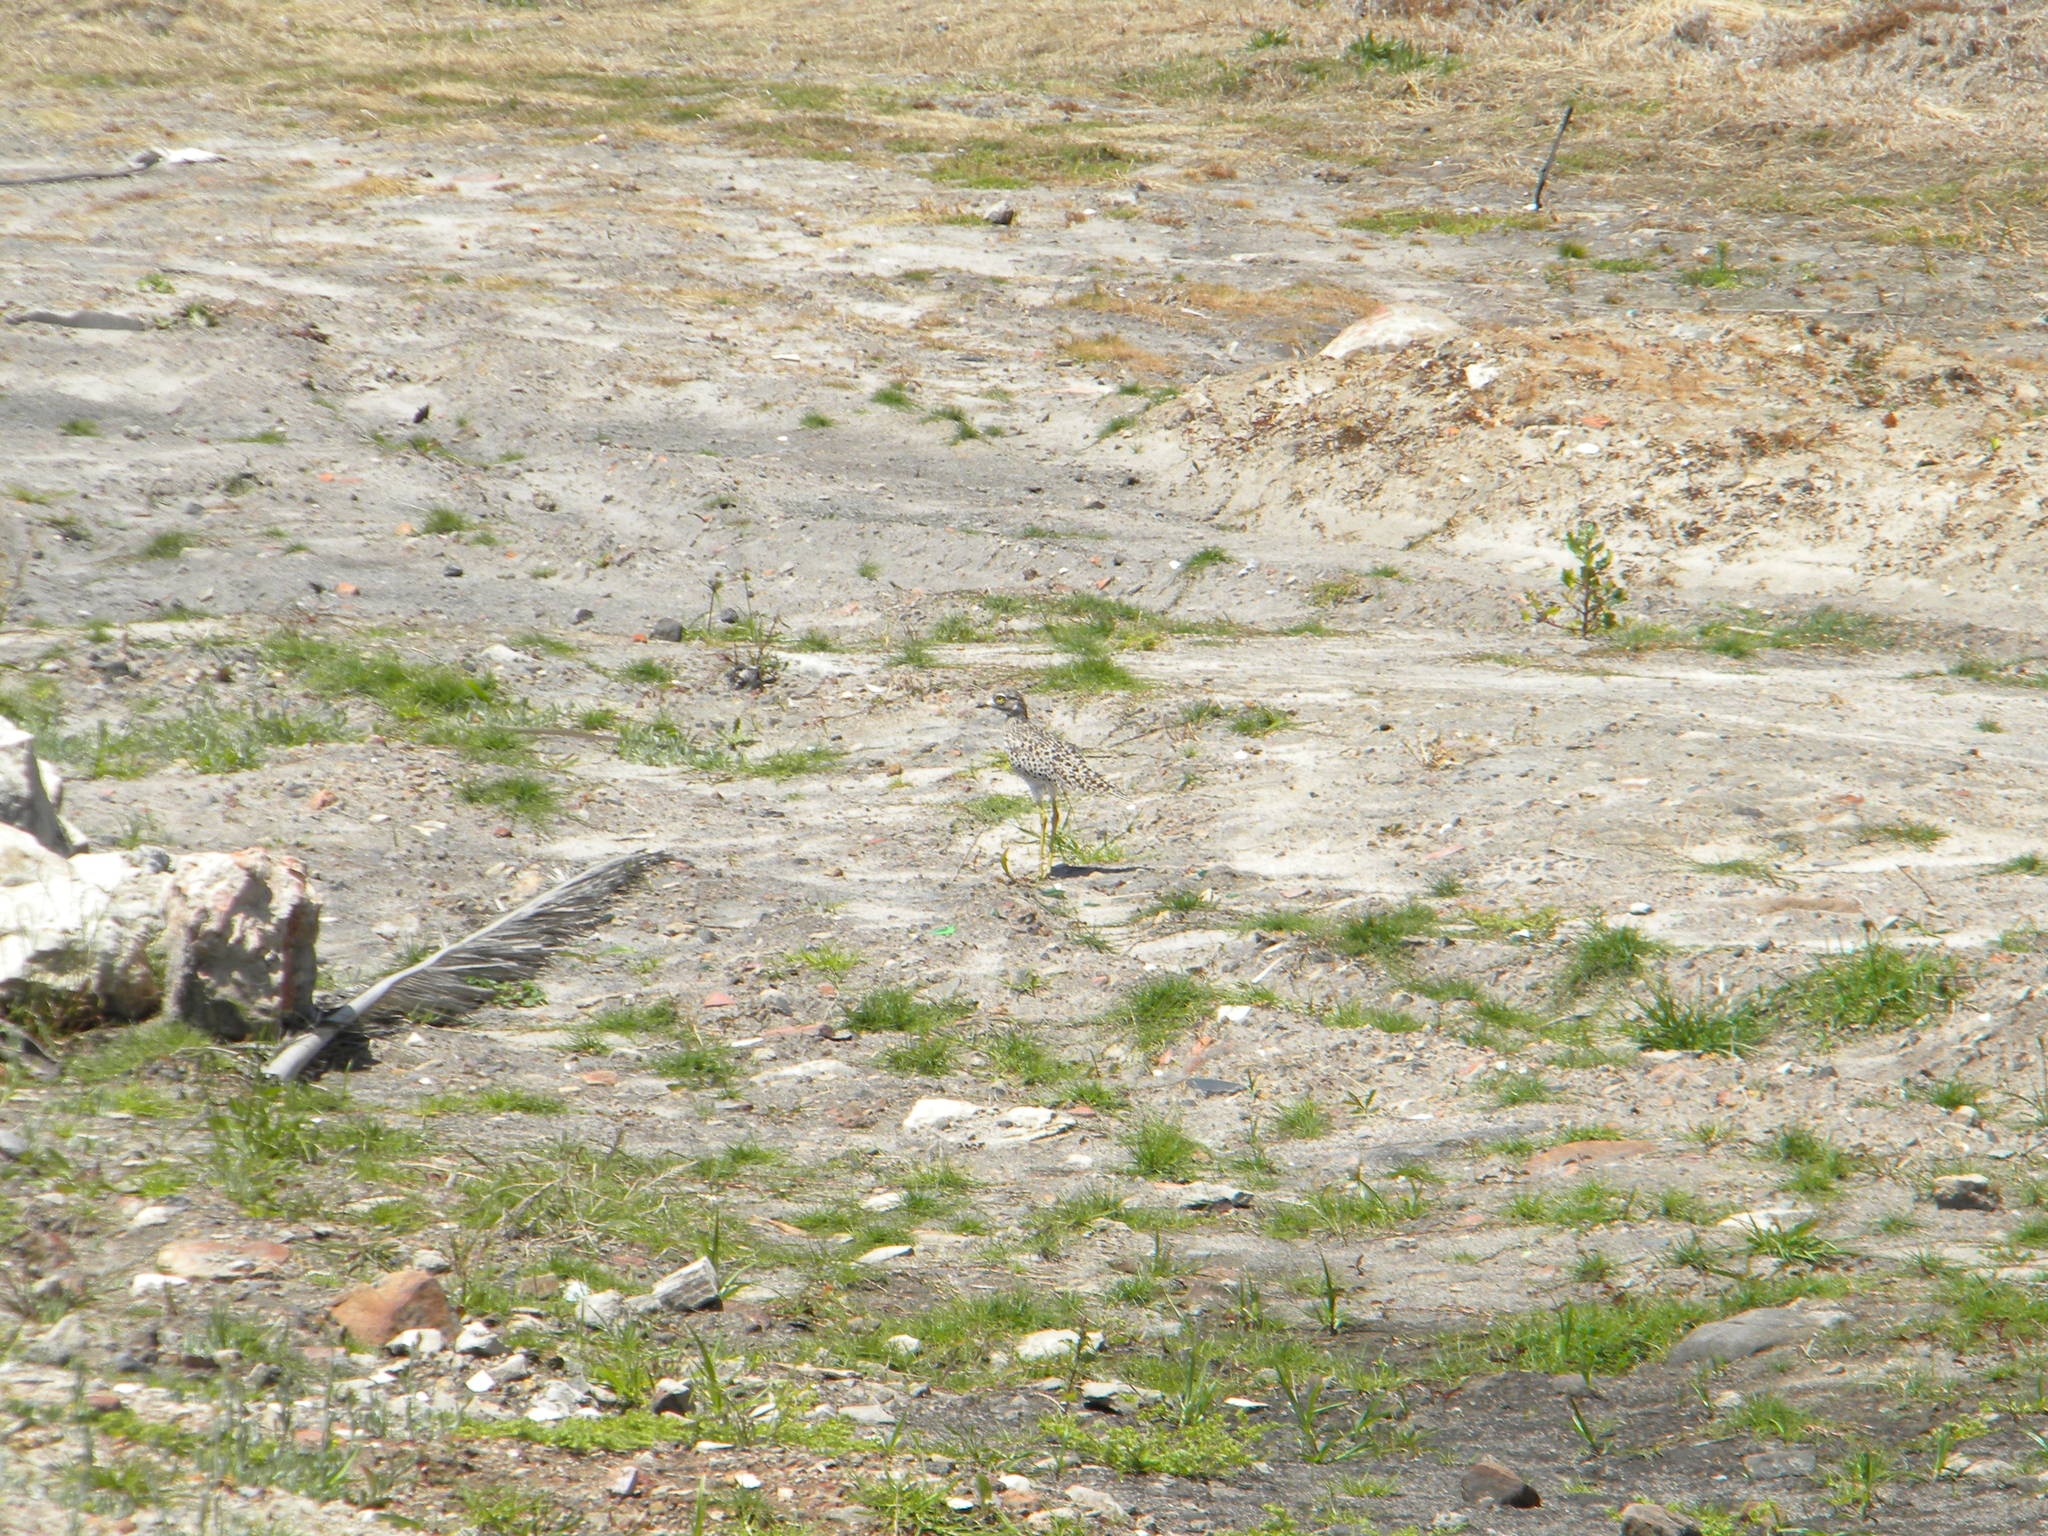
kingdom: Animalia
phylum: Chordata
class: Aves
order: Charadriiformes
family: Burhinidae
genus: Burhinus
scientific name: Burhinus capensis
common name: Spotted thick-knee
